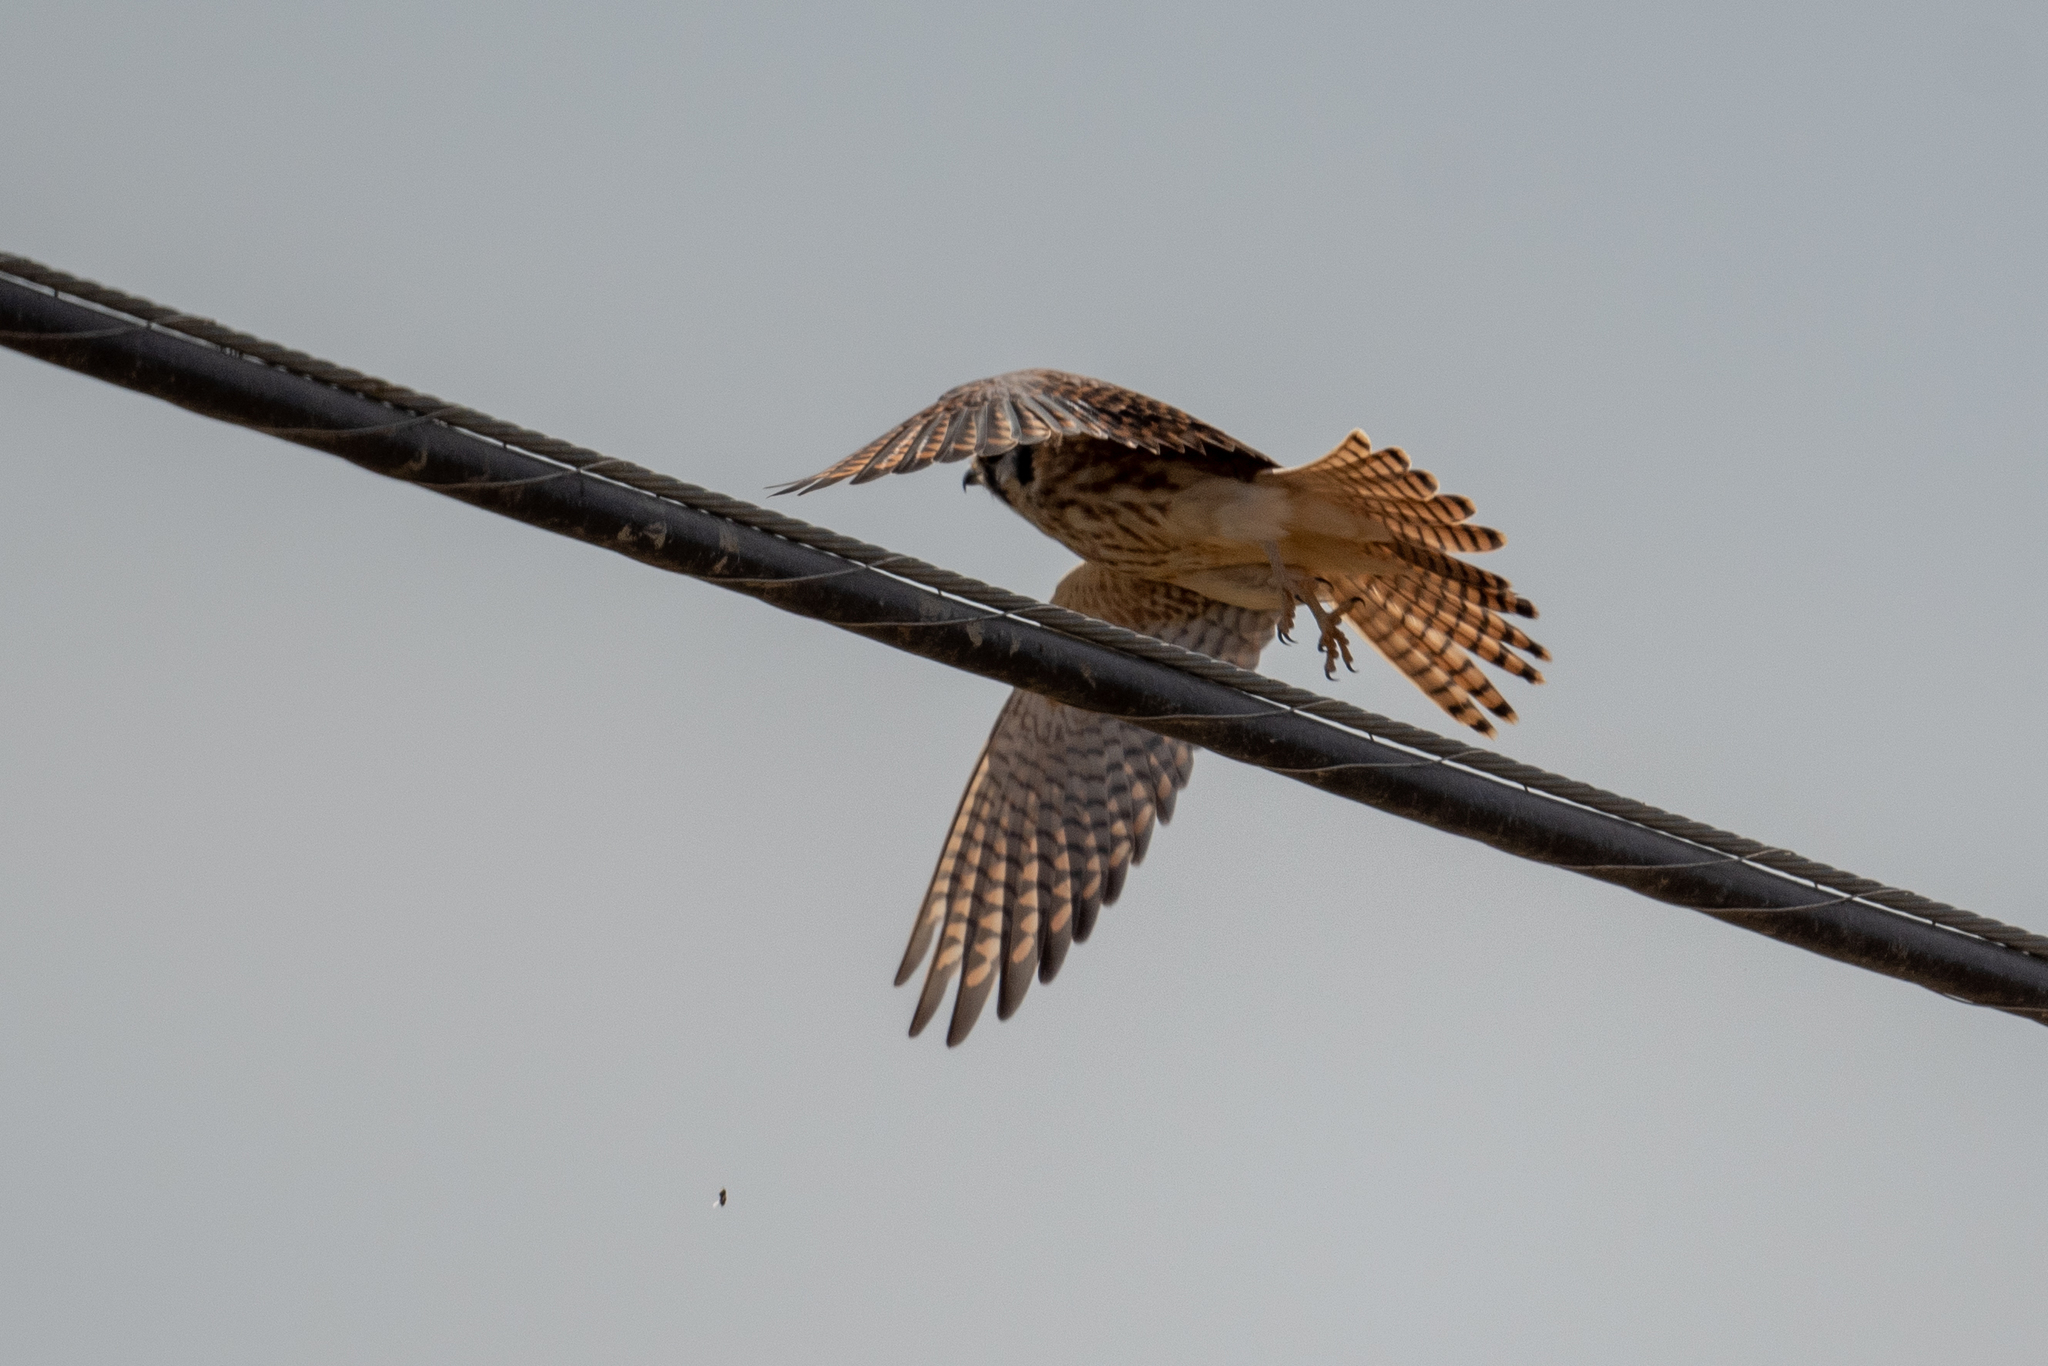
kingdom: Animalia
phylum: Chordata
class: Aves
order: Falconiformes
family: Falconidae
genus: Falco
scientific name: Falco sparverius
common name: American kestrel
